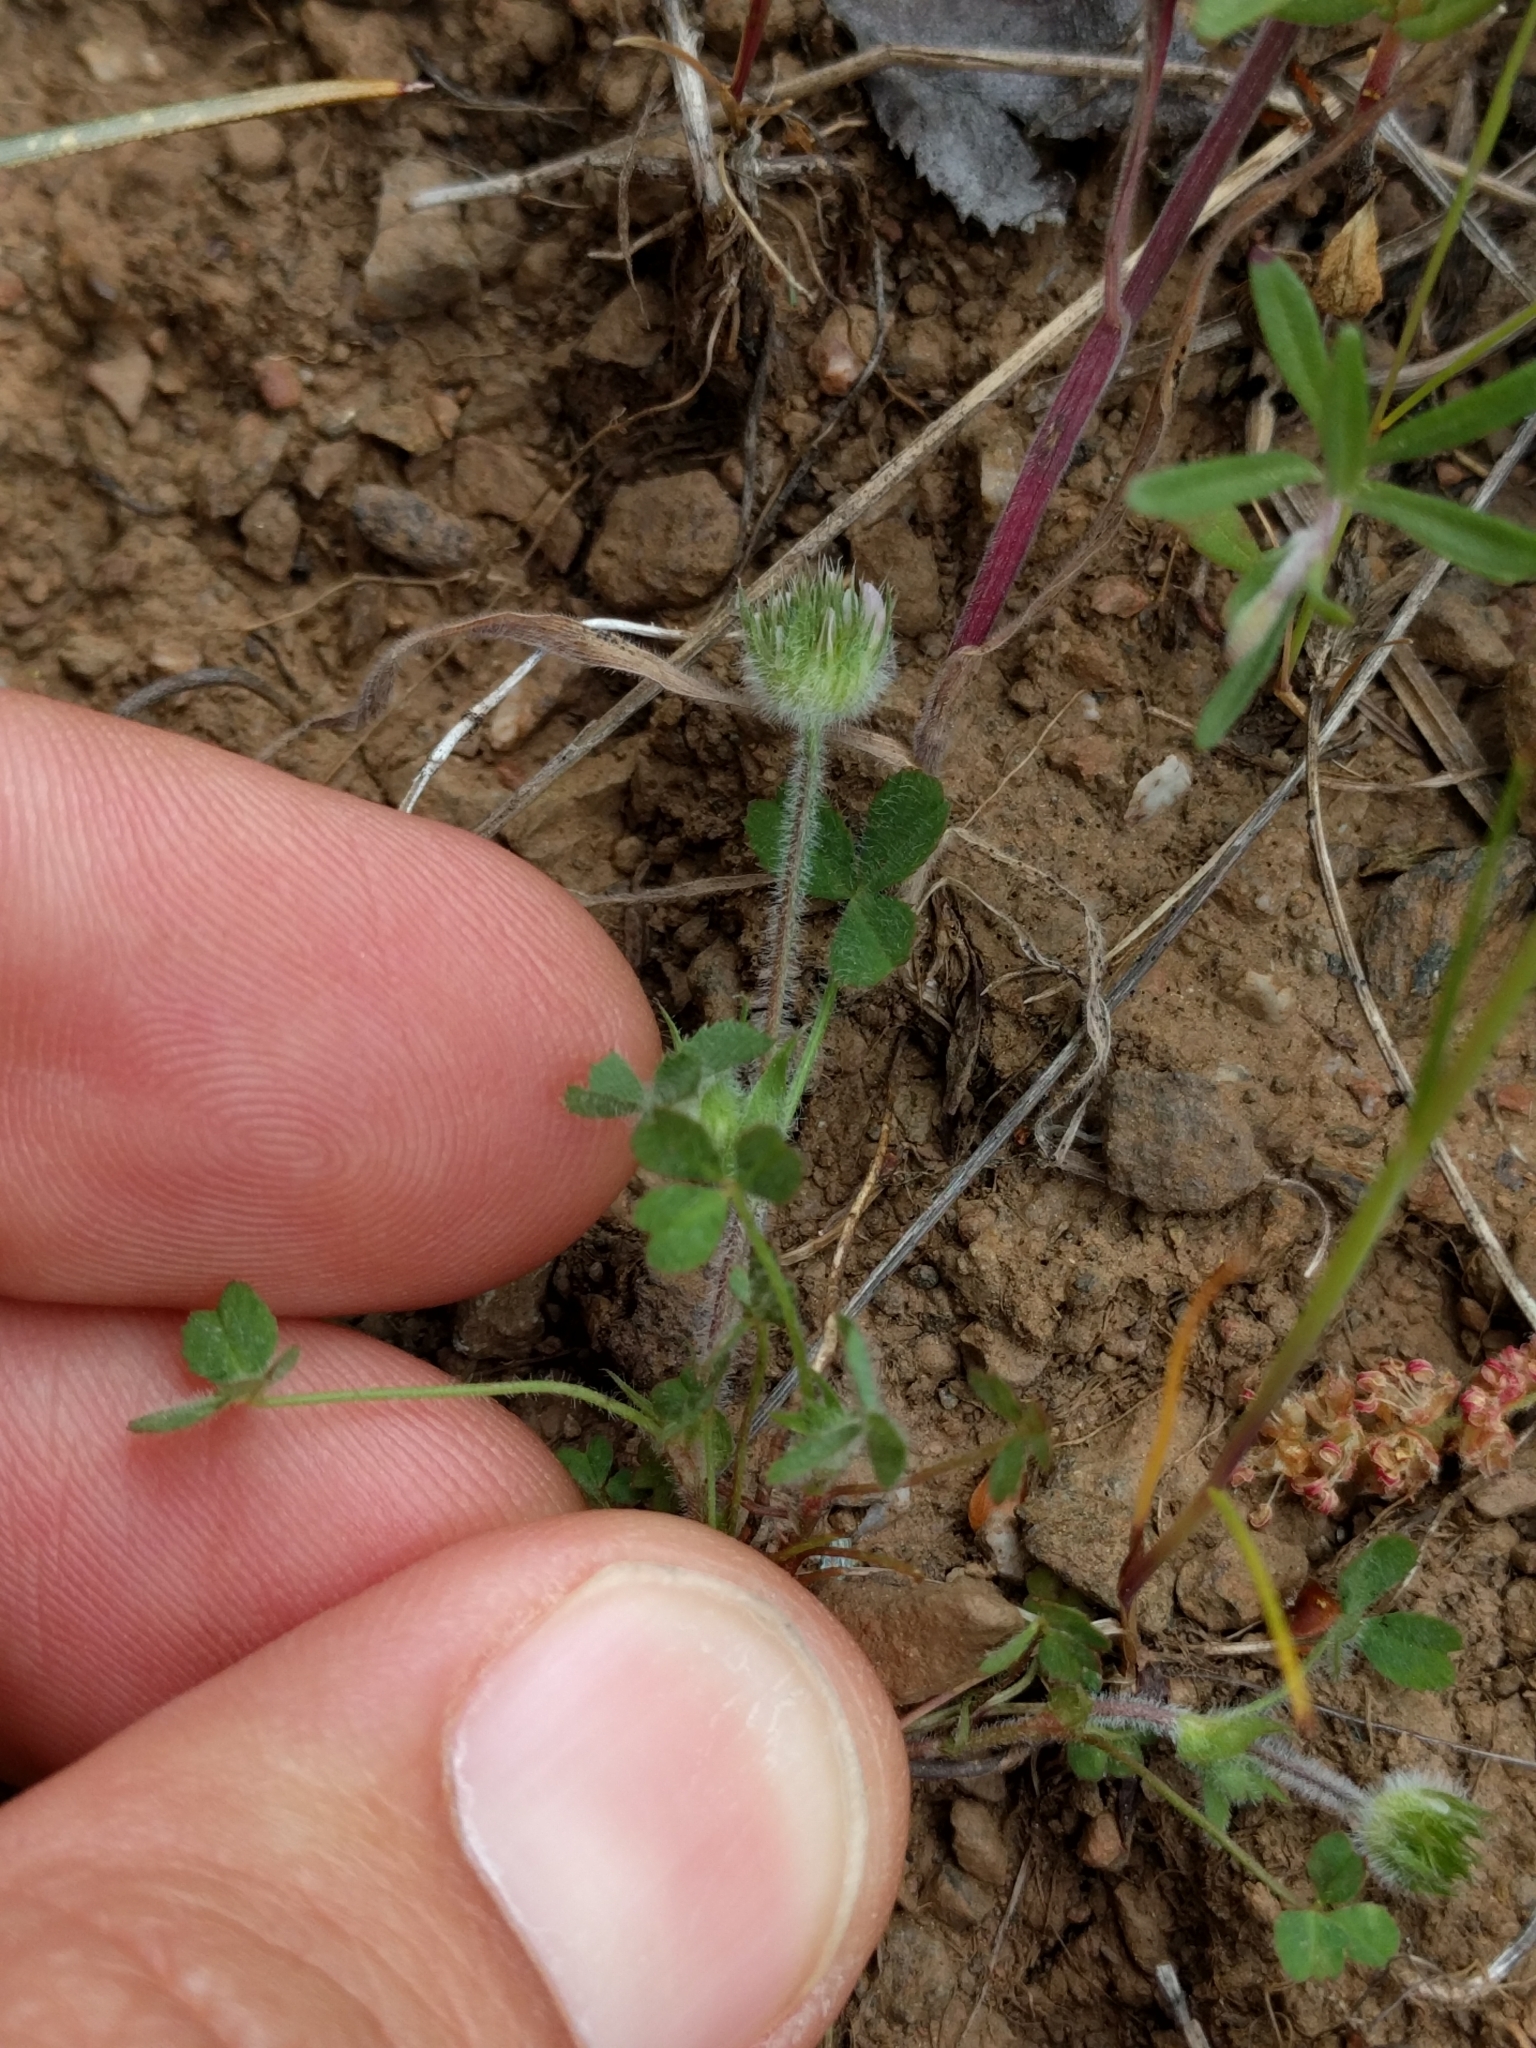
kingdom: Plantae
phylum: Tracheophyta
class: Magnoliopsida
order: Fabales
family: Fabaceae
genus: Trifolium
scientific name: Trifolium microcephalum
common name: Maiden clover
